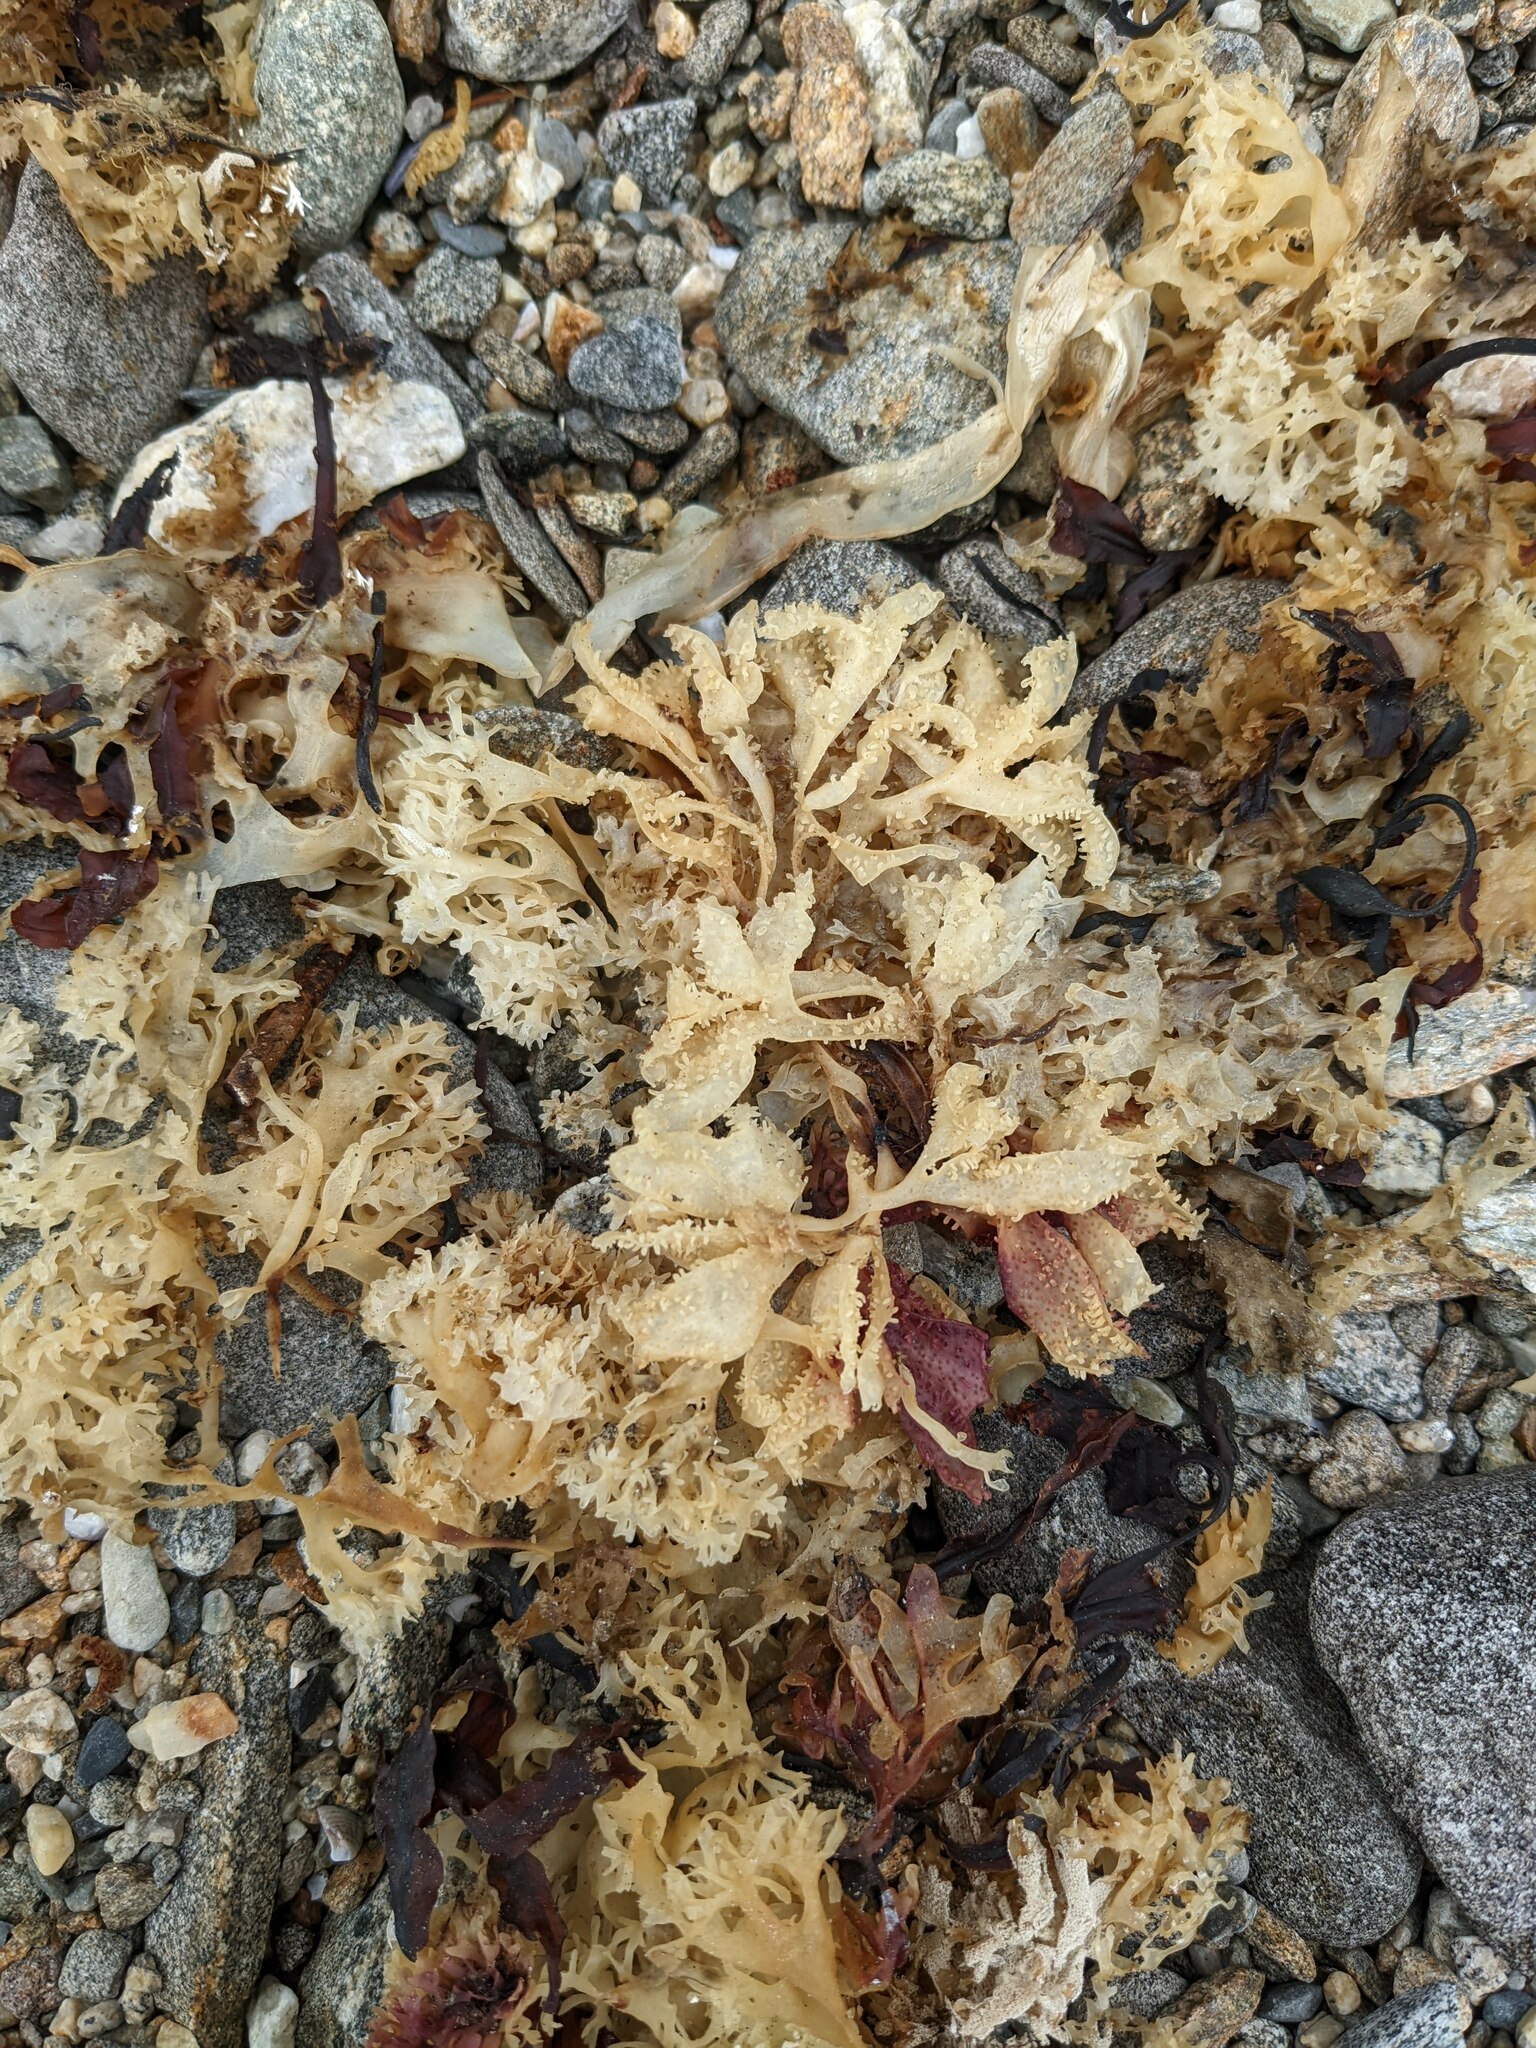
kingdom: Plantae
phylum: Rhodophyta
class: Florideophyceae
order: Gigartinales
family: Gigartinaceae
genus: Chondrus
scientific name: Chondrus crispus
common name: Carrageen
